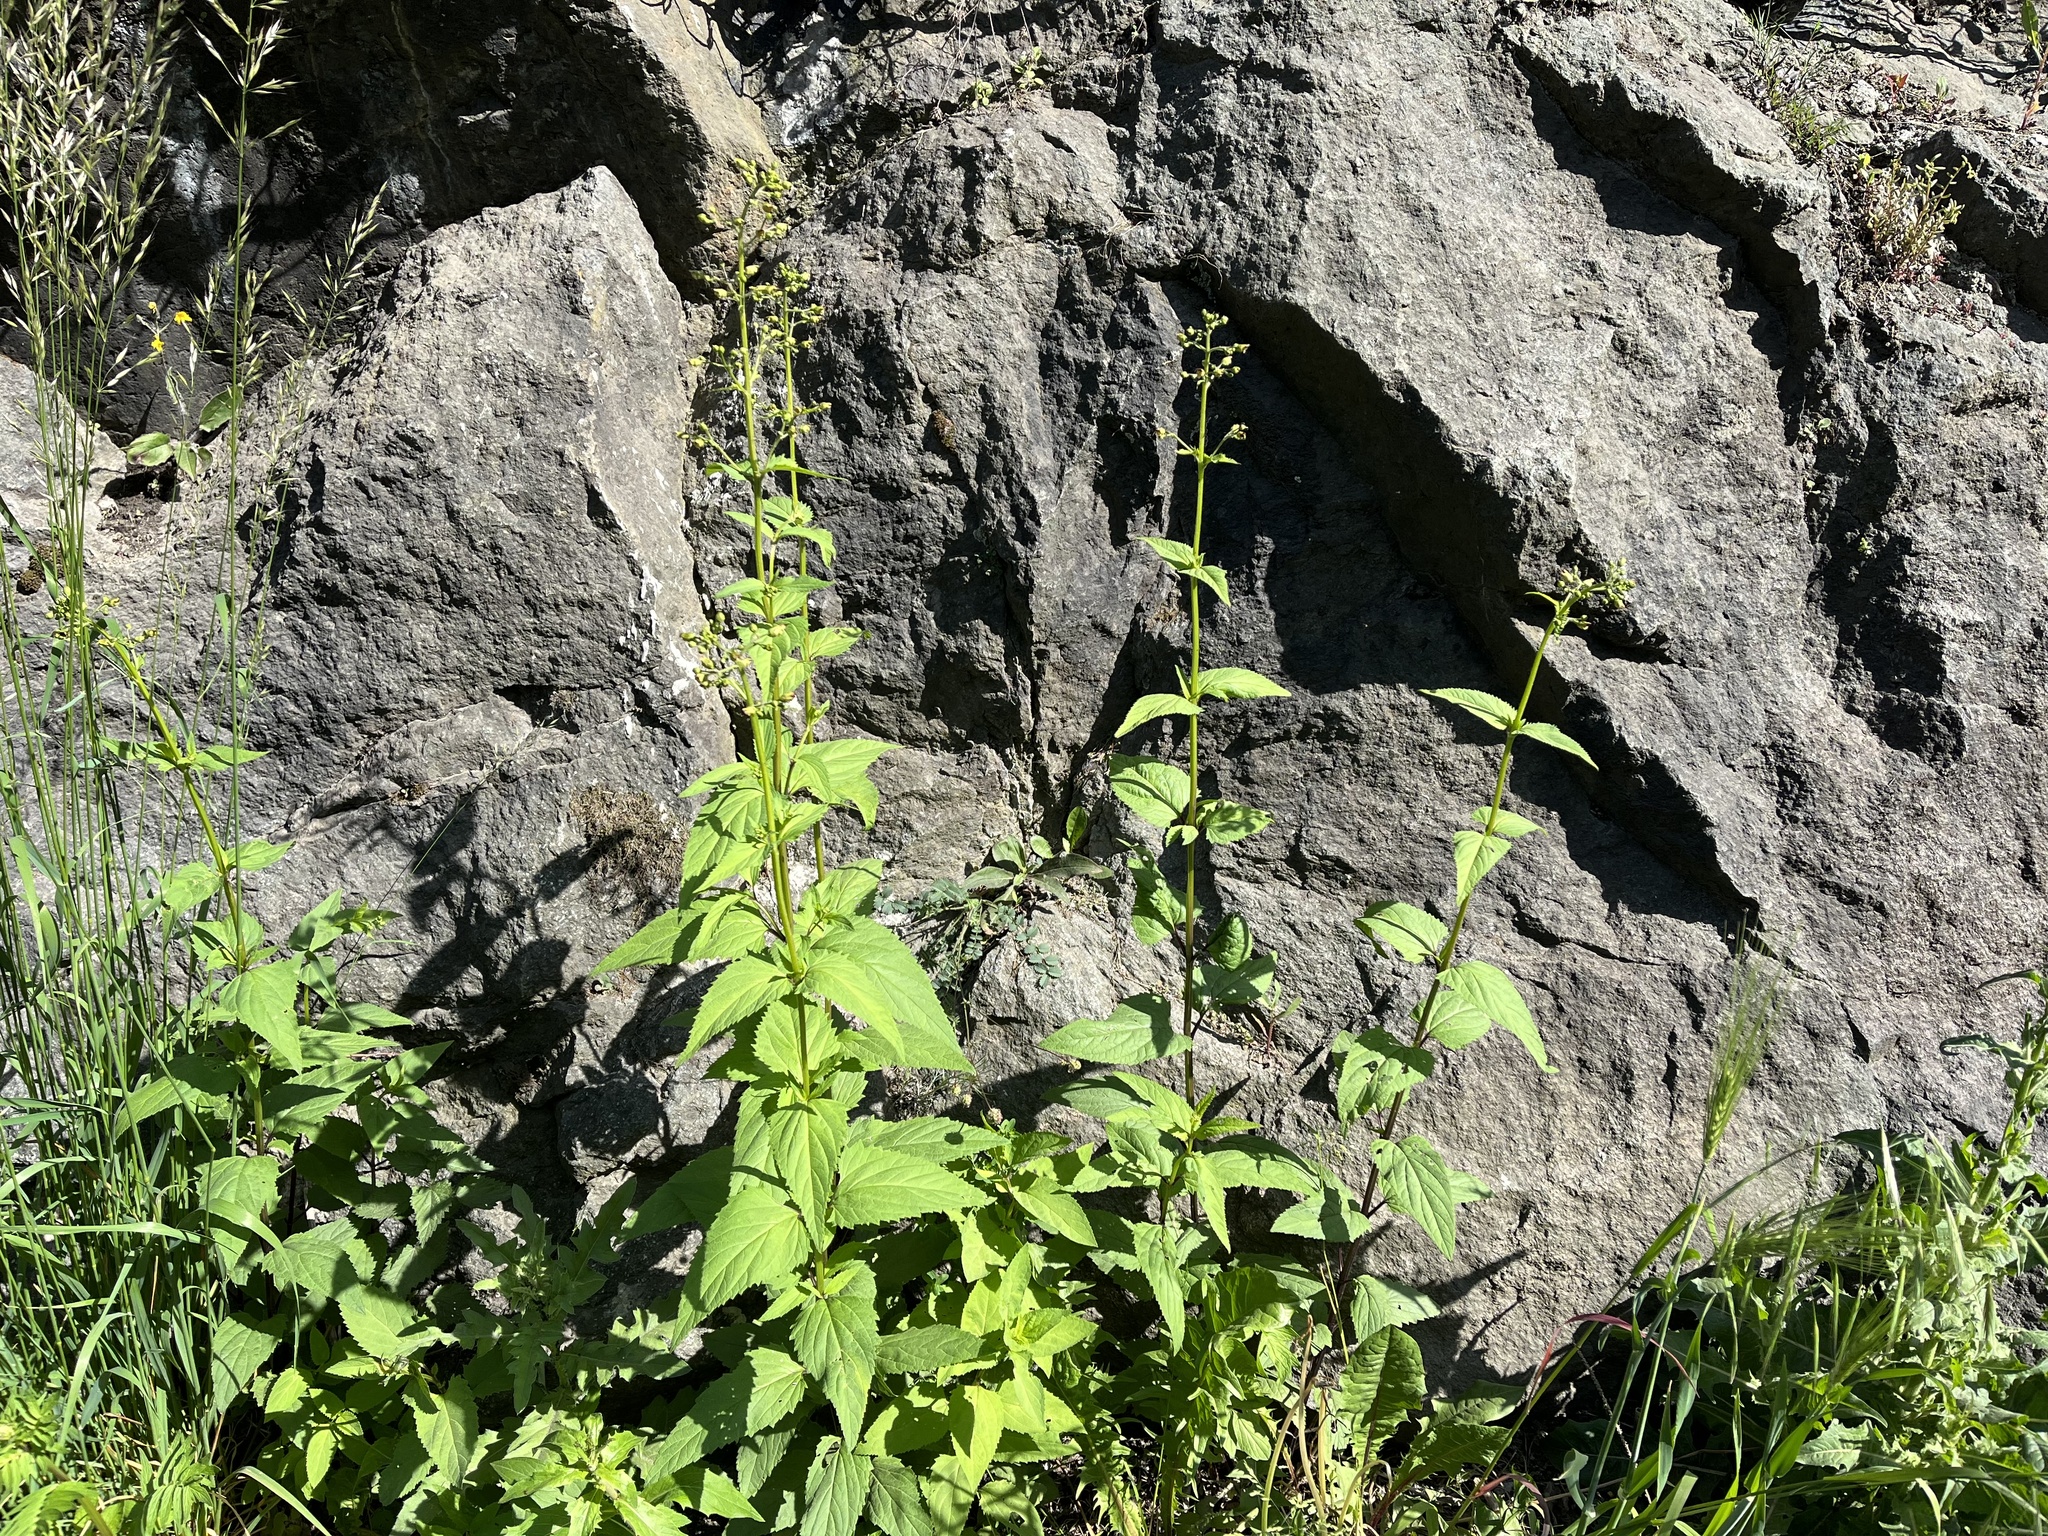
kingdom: Plantae
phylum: Tracheophyta
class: Magnoliopsida
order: Lamiales
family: Scrophulariaceae
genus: Scrophularia
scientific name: Scrophularia nodosa
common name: Common figwort
